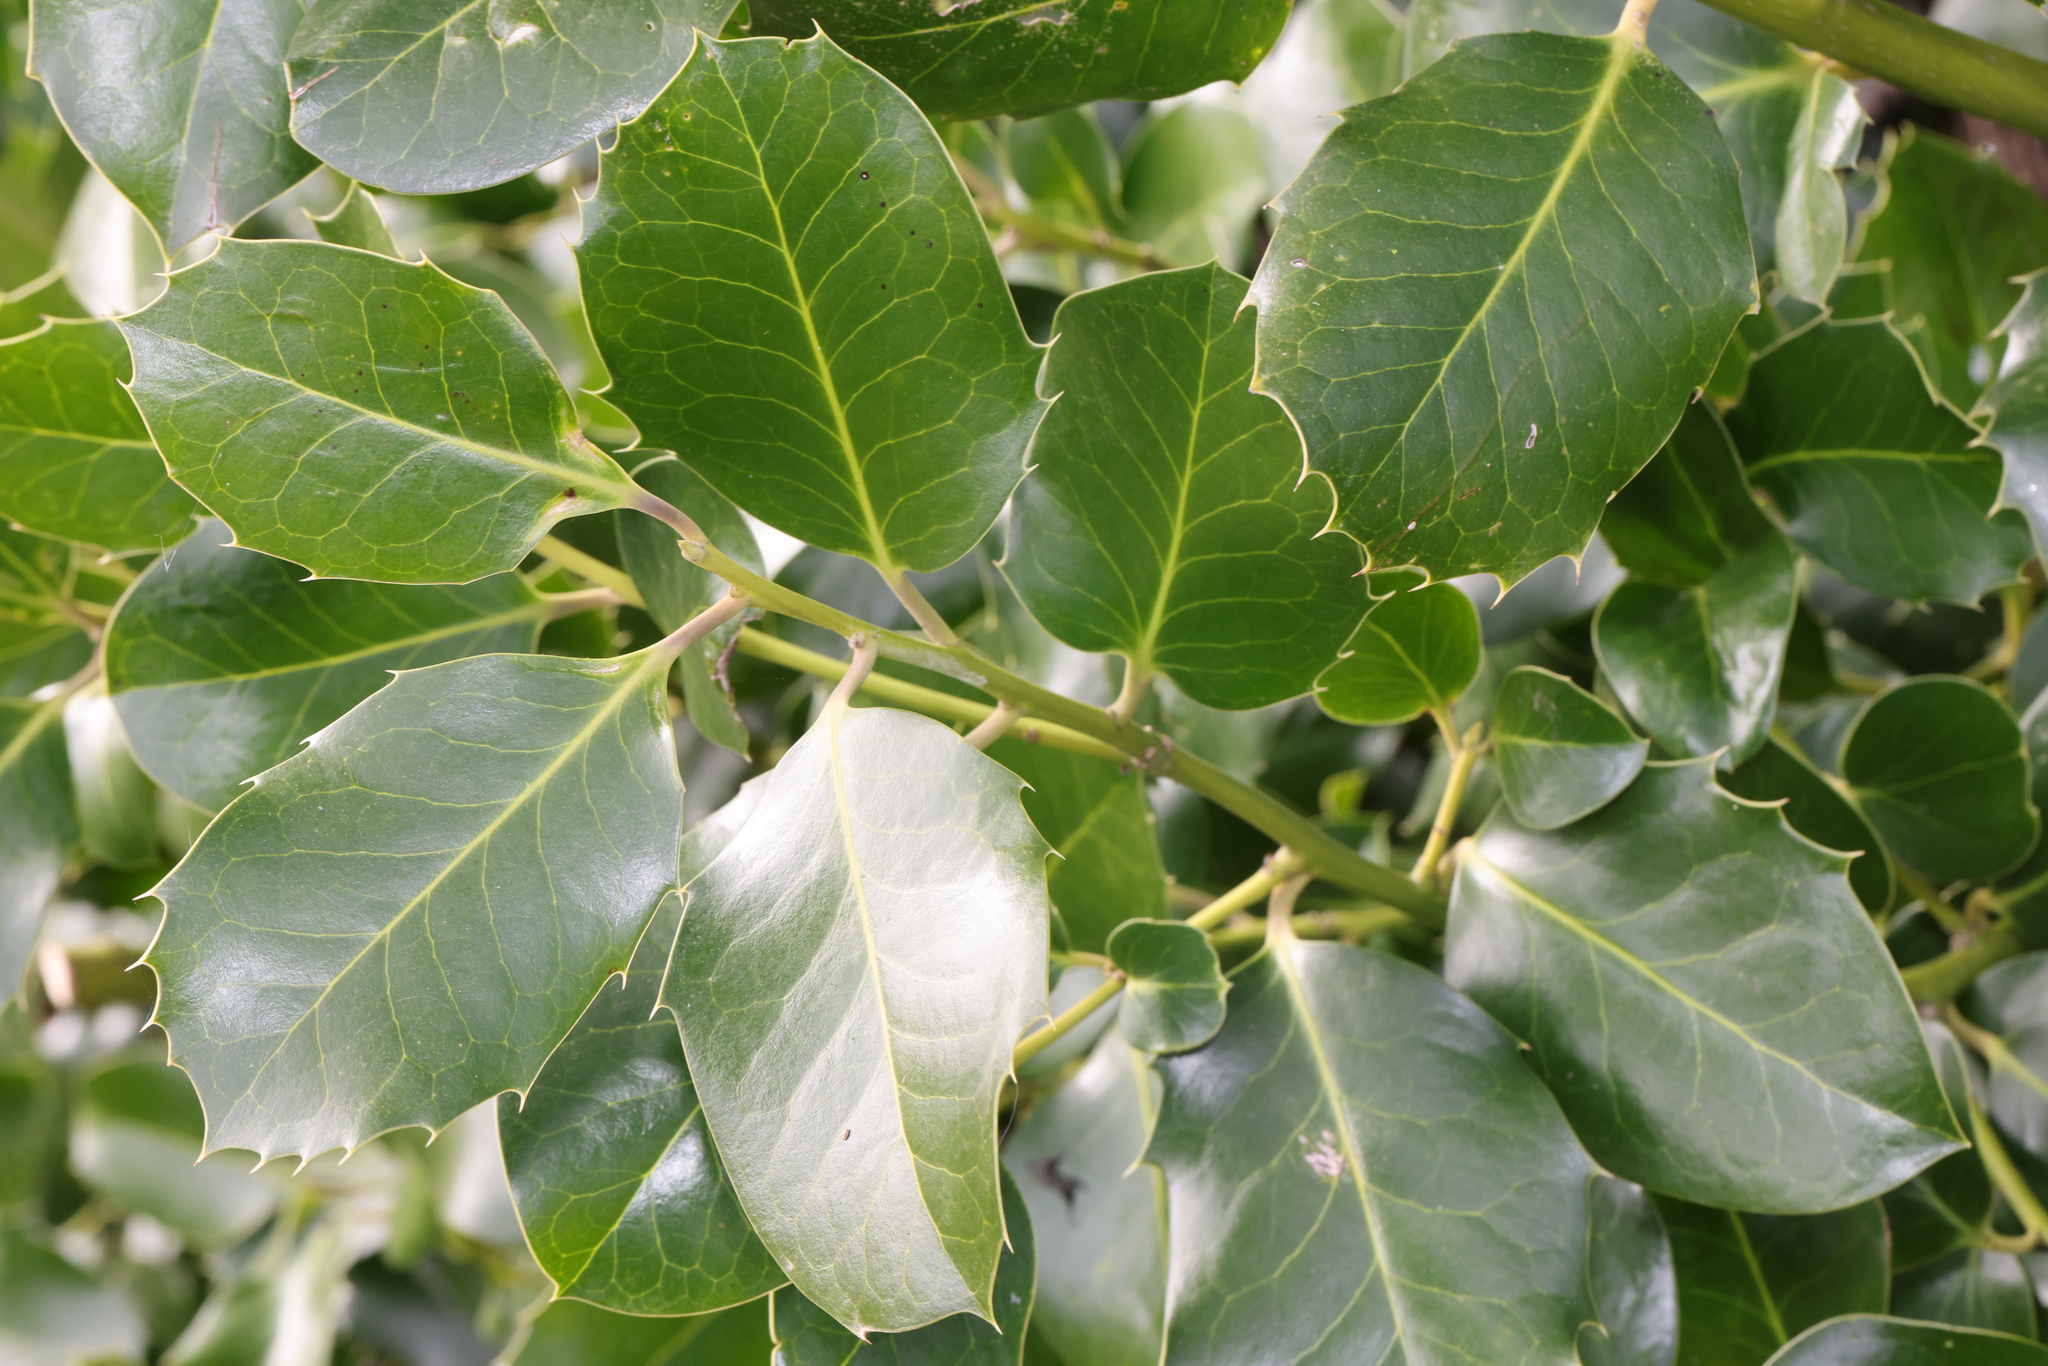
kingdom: Plantae
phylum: Tracheophyta
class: Magnoliopsida
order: Aquifoliales
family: Aquifoliaceae
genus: Ilex
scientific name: Ilex altaclerensis
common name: Highclere holly
